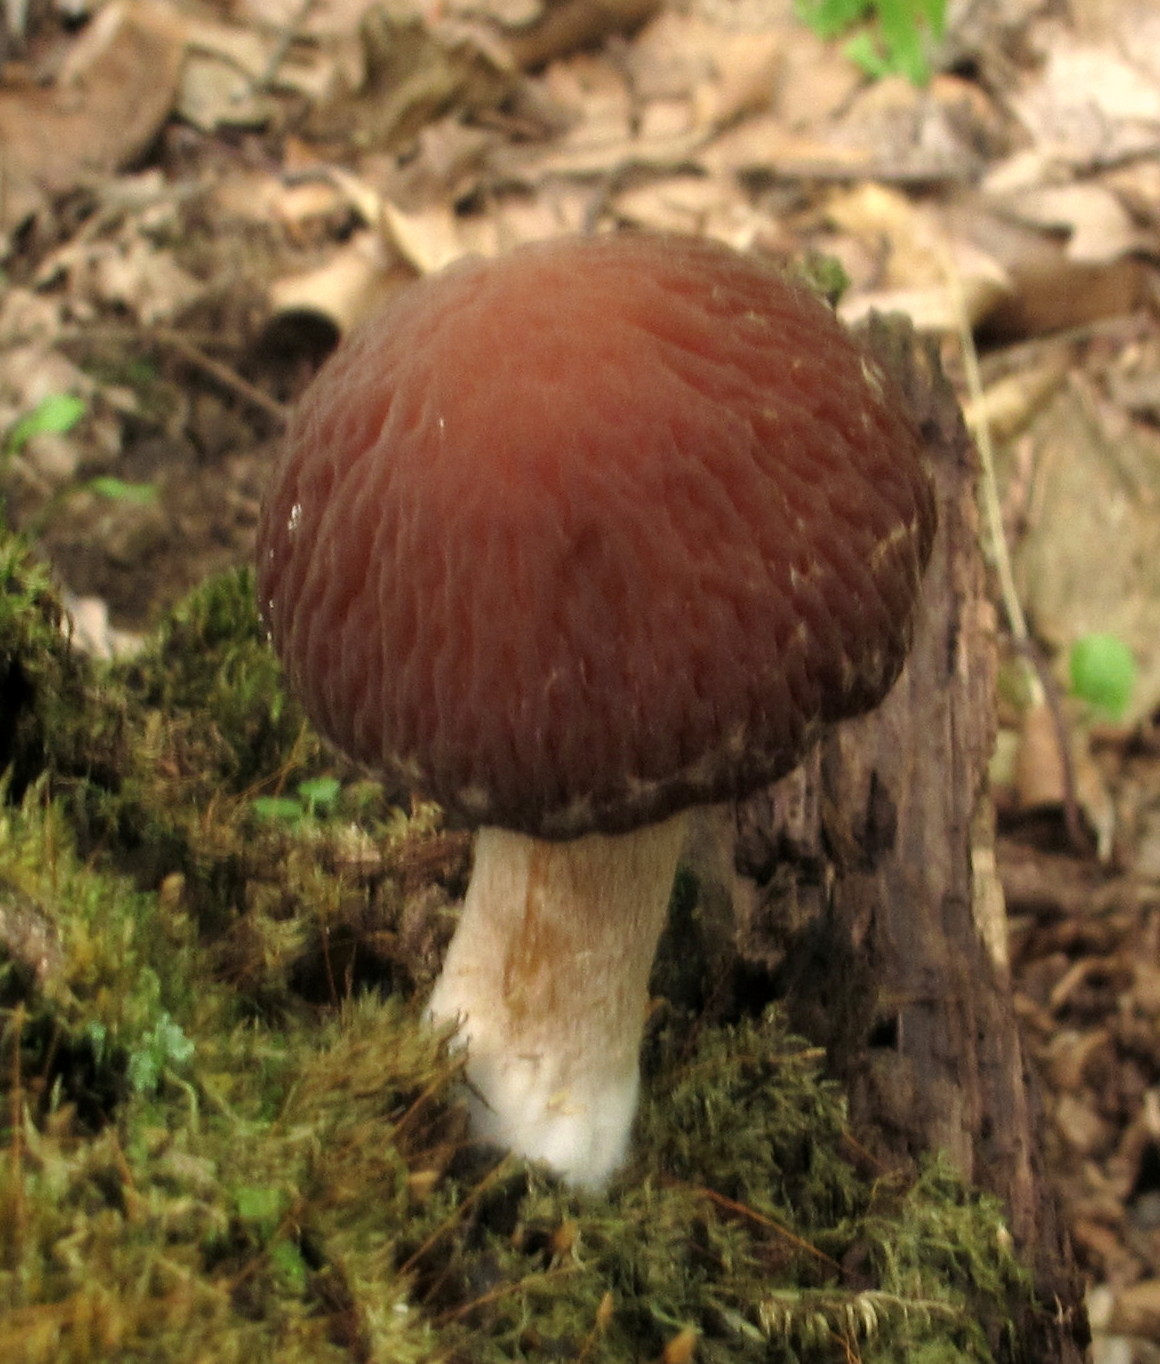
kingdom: Fungi
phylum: Basidiomycota
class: Agaricomycetes
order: Agaricales
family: Psathyrellaceae
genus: Typhrasa
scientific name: Typhrasa gossypina
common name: Wrinkled psathyrella
